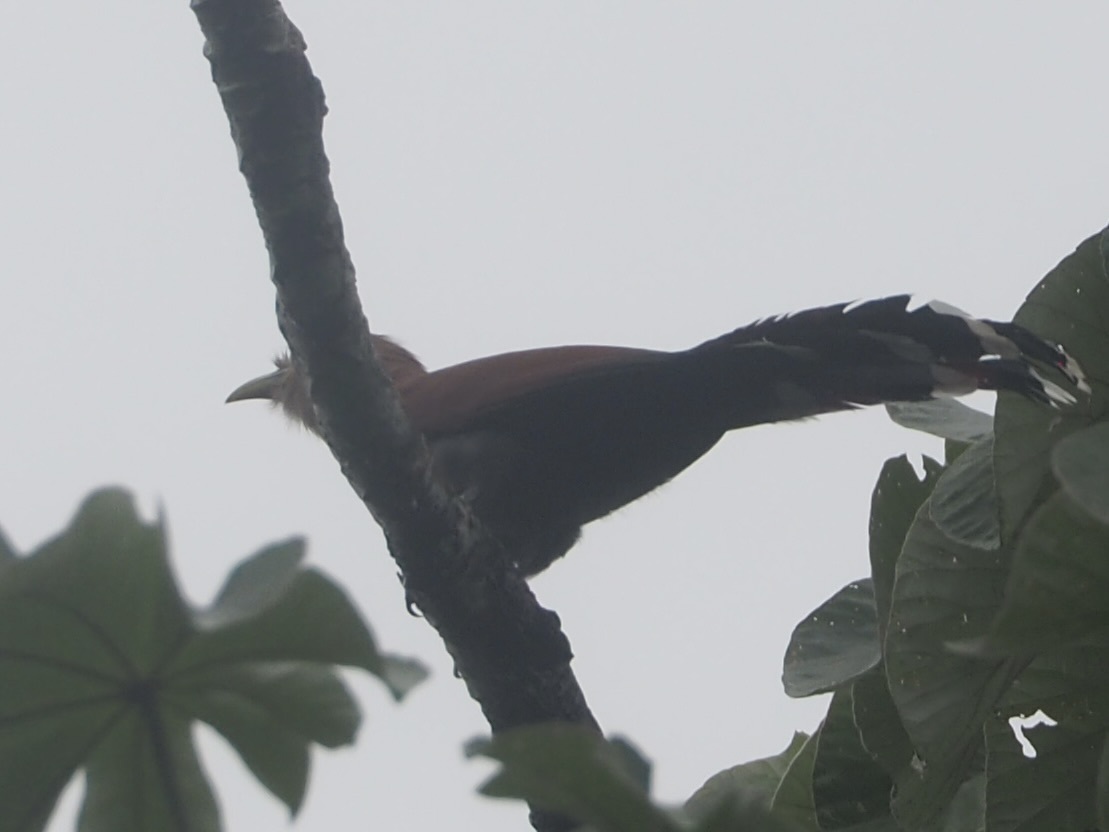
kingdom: Animalia
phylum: Chordata
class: Aves
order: Cuculiformes
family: Cuculidae
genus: Piaya
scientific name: Piaya cayana
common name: Squirrel cuckoo
